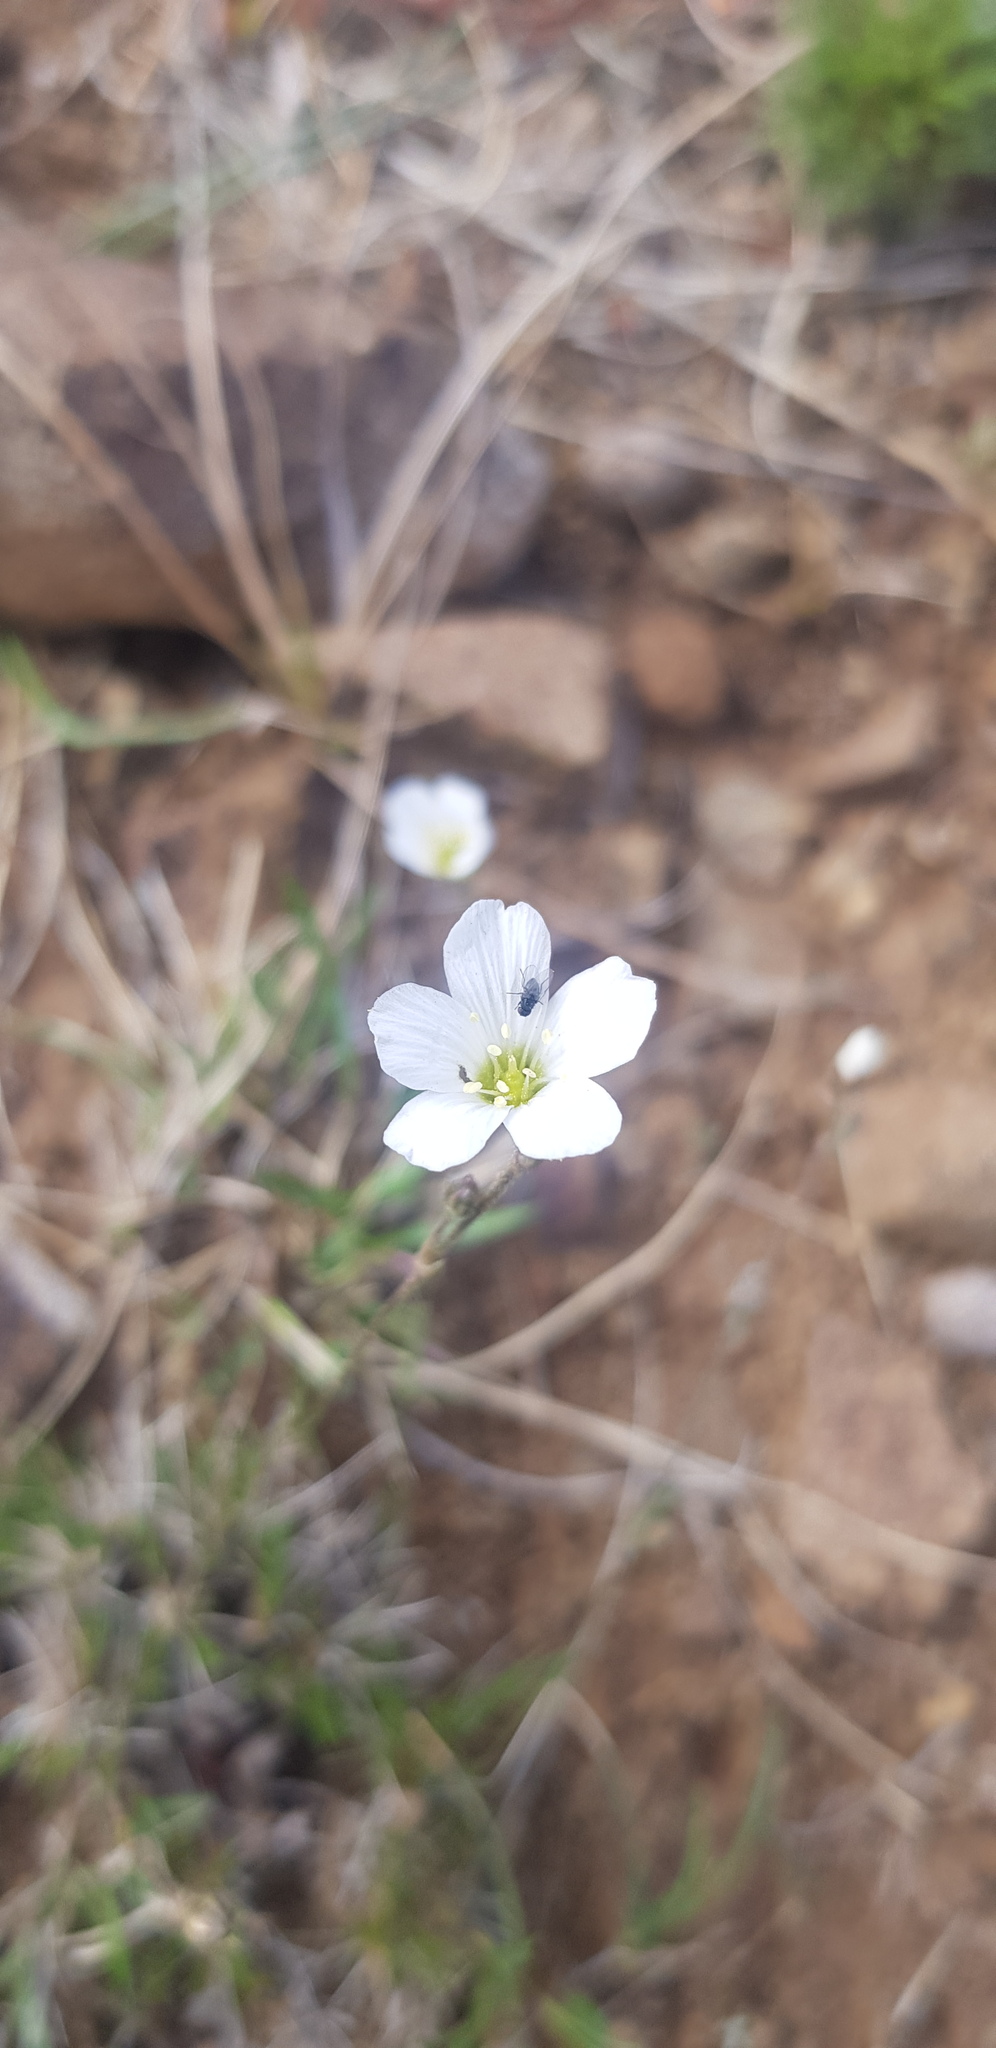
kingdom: Plantae
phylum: Tracheophyta
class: Magnoliopsida
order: Caryophyllales
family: Caryophyllaceae
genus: Eremogone
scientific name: Eremogone capillaris
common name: Slender mountain sandwort
